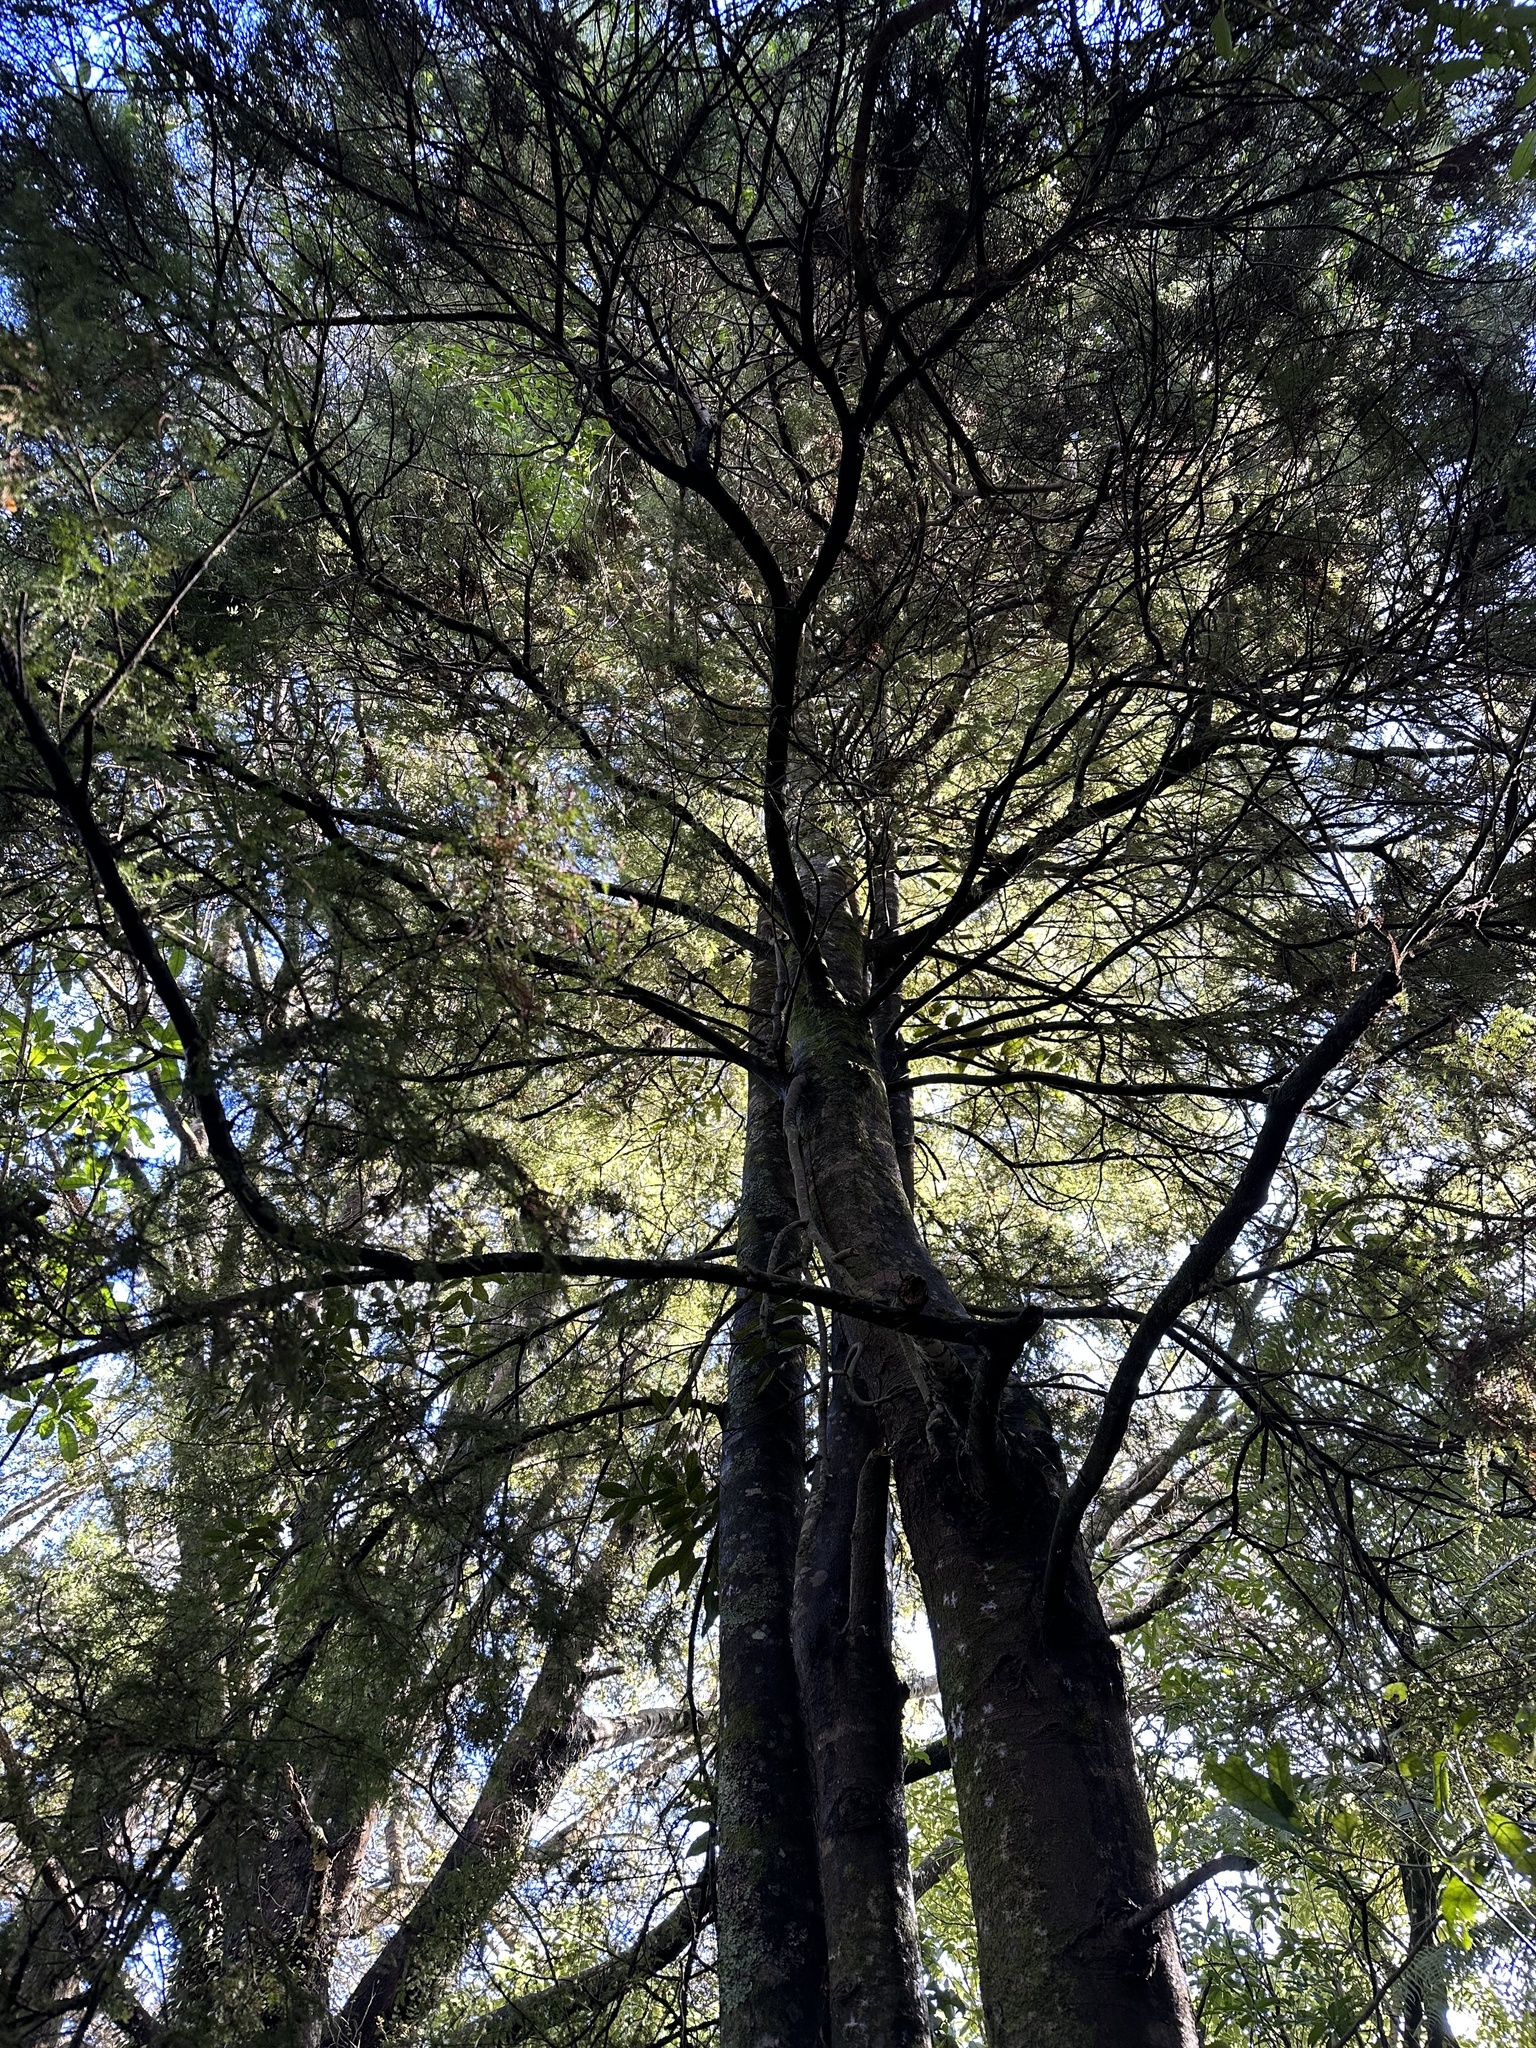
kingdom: Plantae
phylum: Tracheophyta
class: Pinopsida
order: Pinales
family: Podocarpaceae
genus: Dacrycarpus
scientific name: Dacrycarpus dacrydioides
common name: White pine
